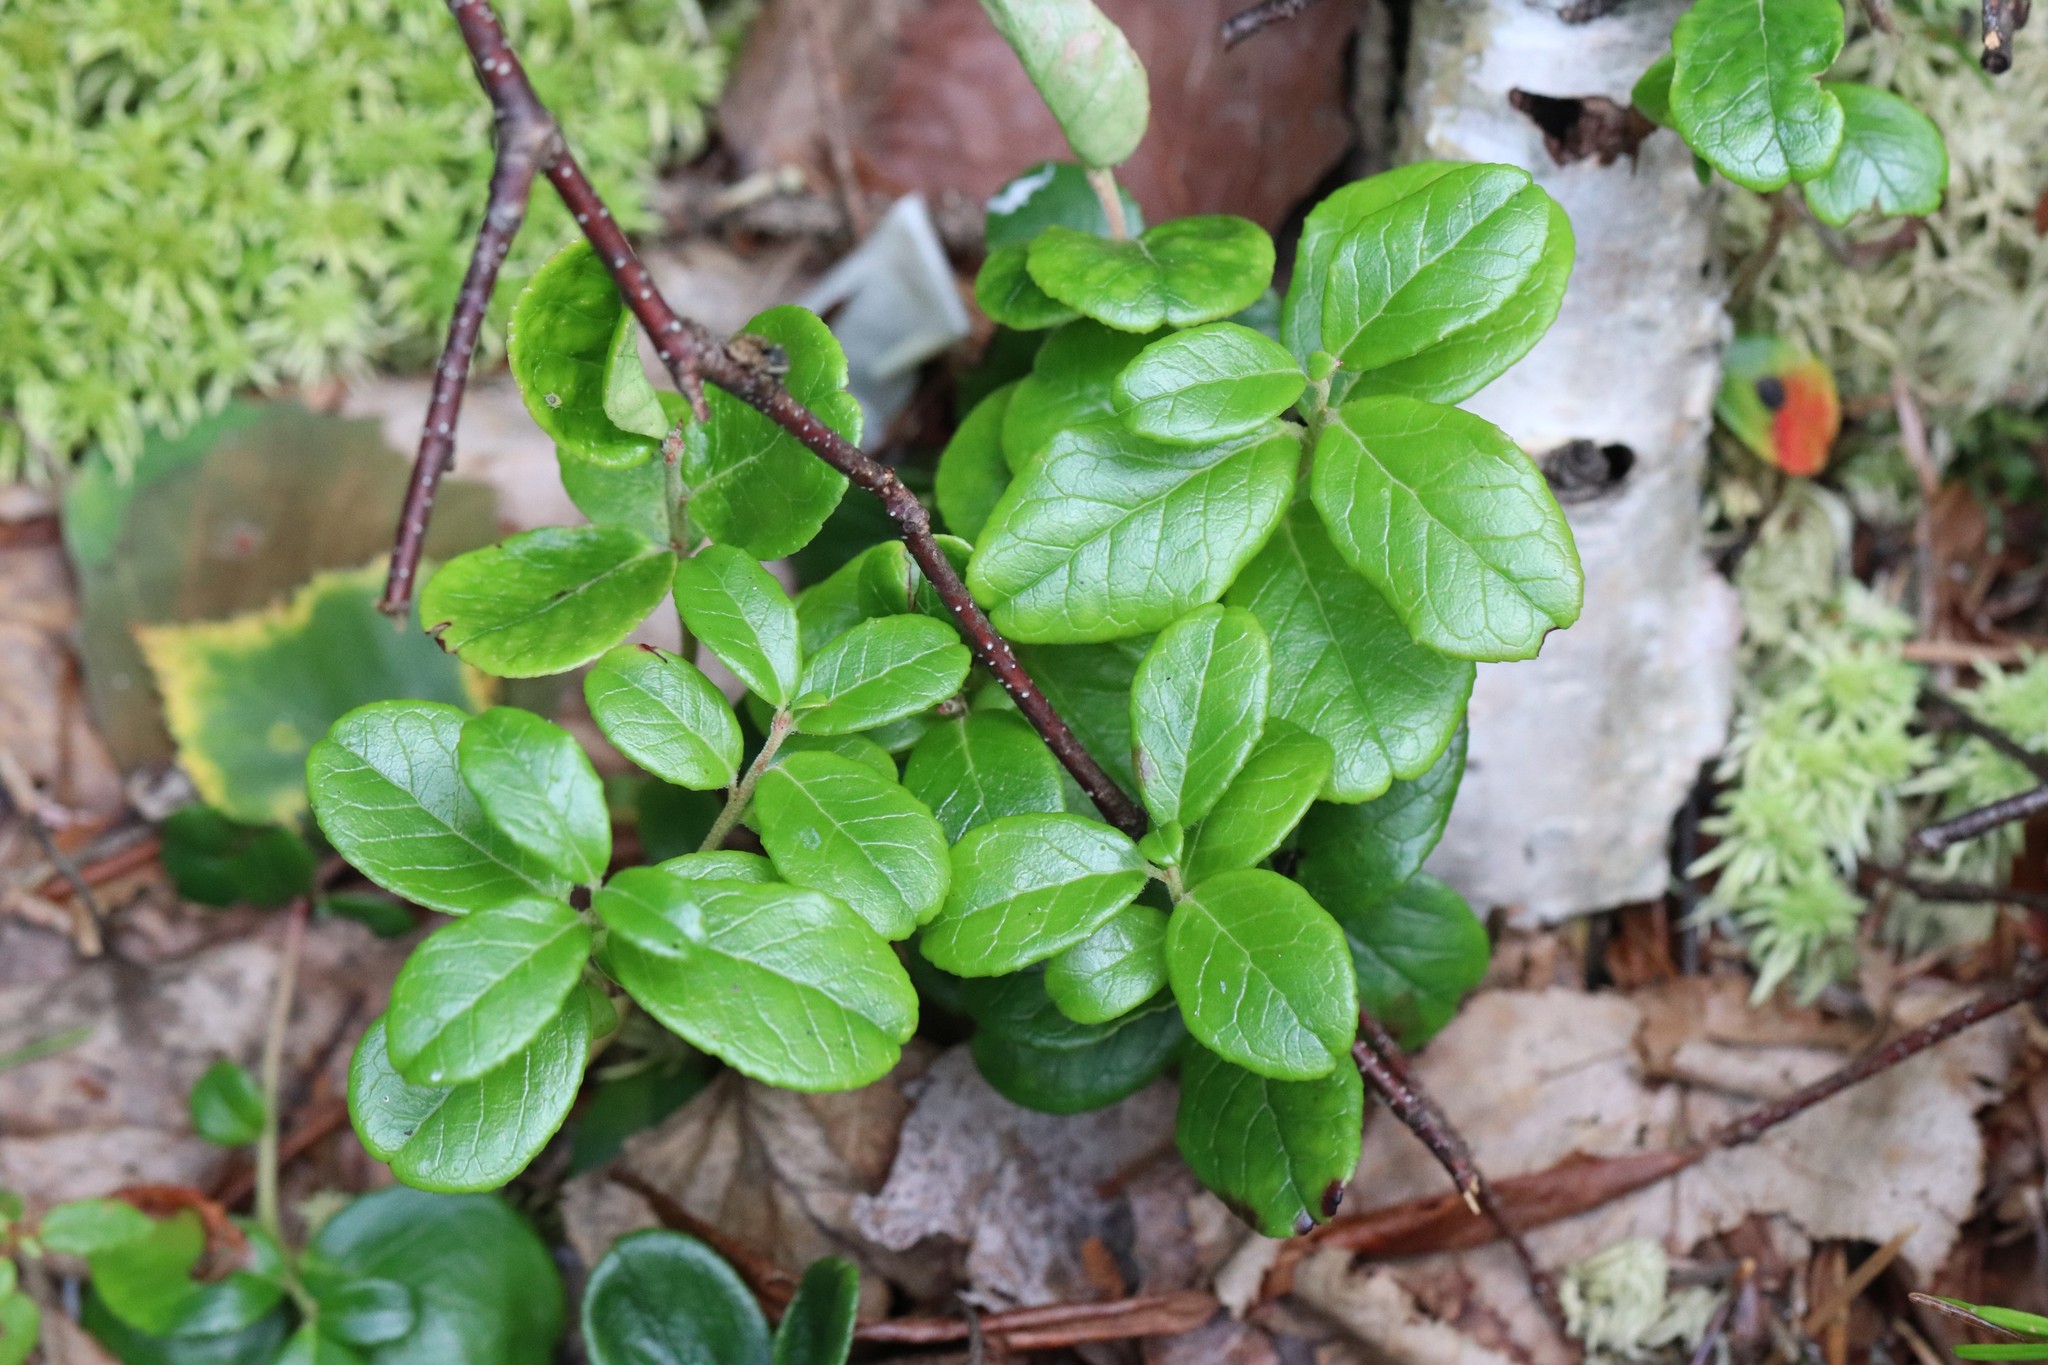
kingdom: Plantae
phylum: Tracheophyta
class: Magnoliopsida
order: Ericales
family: Ericaceae
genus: Vaccinium
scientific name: Vaccinium vitis-idaea
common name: Cowberry
